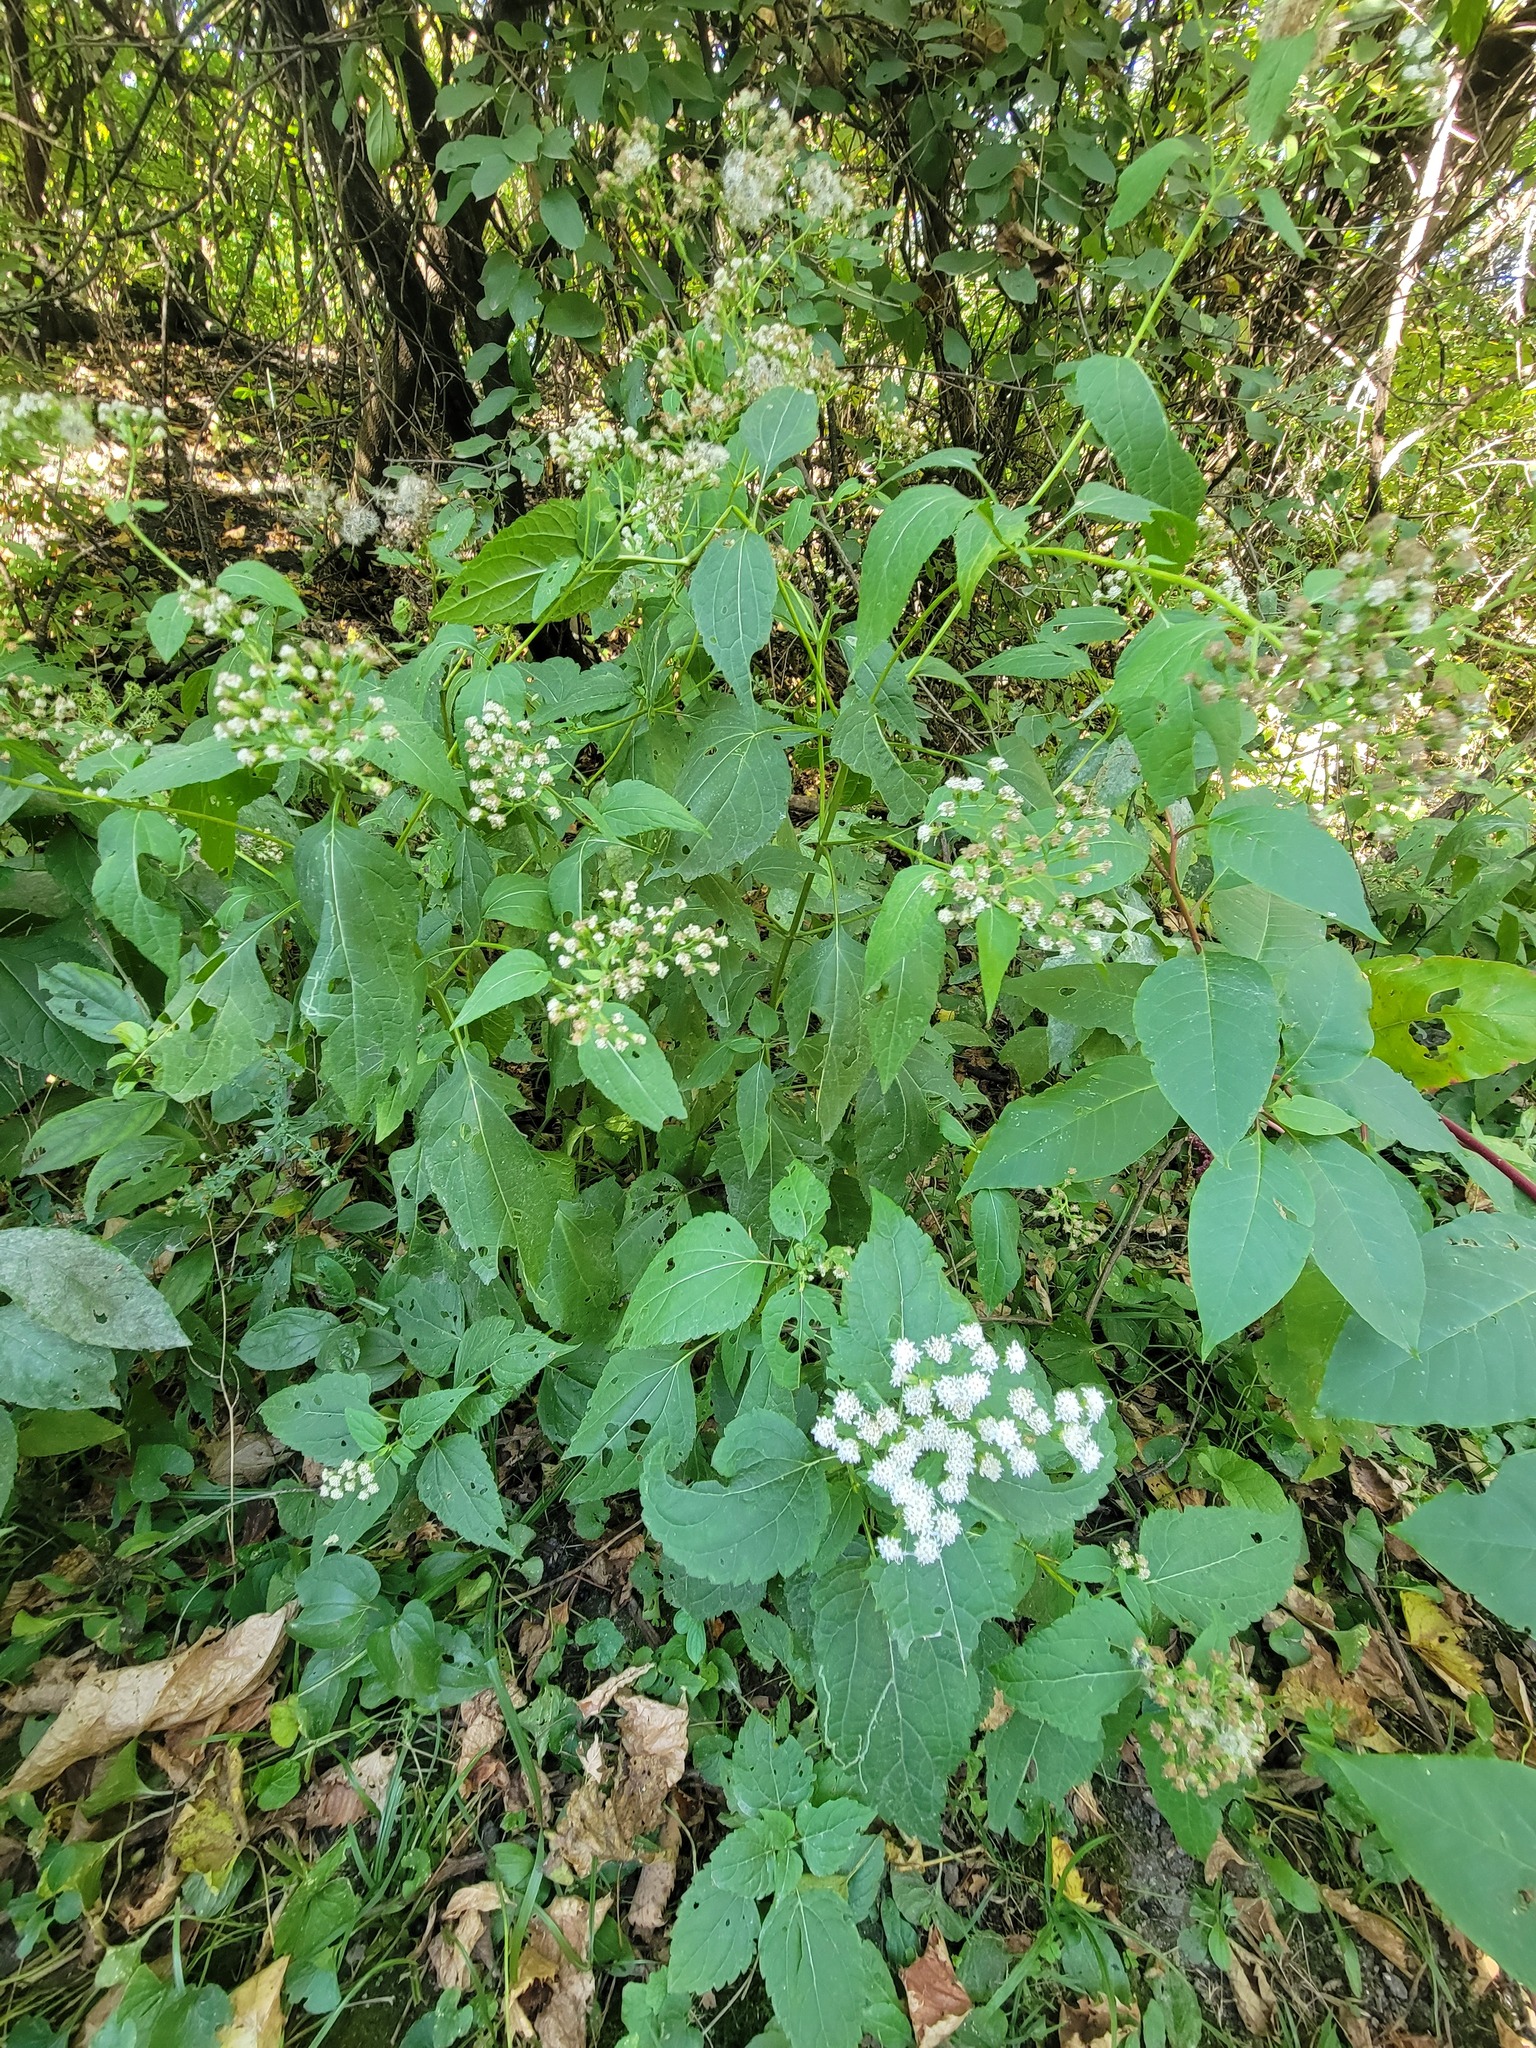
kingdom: Plantae
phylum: Tracheophyta
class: Magnoliopsida
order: Asterales
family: Asteraceae
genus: Ageratina
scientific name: Ageratina altissima
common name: White snakeroot
